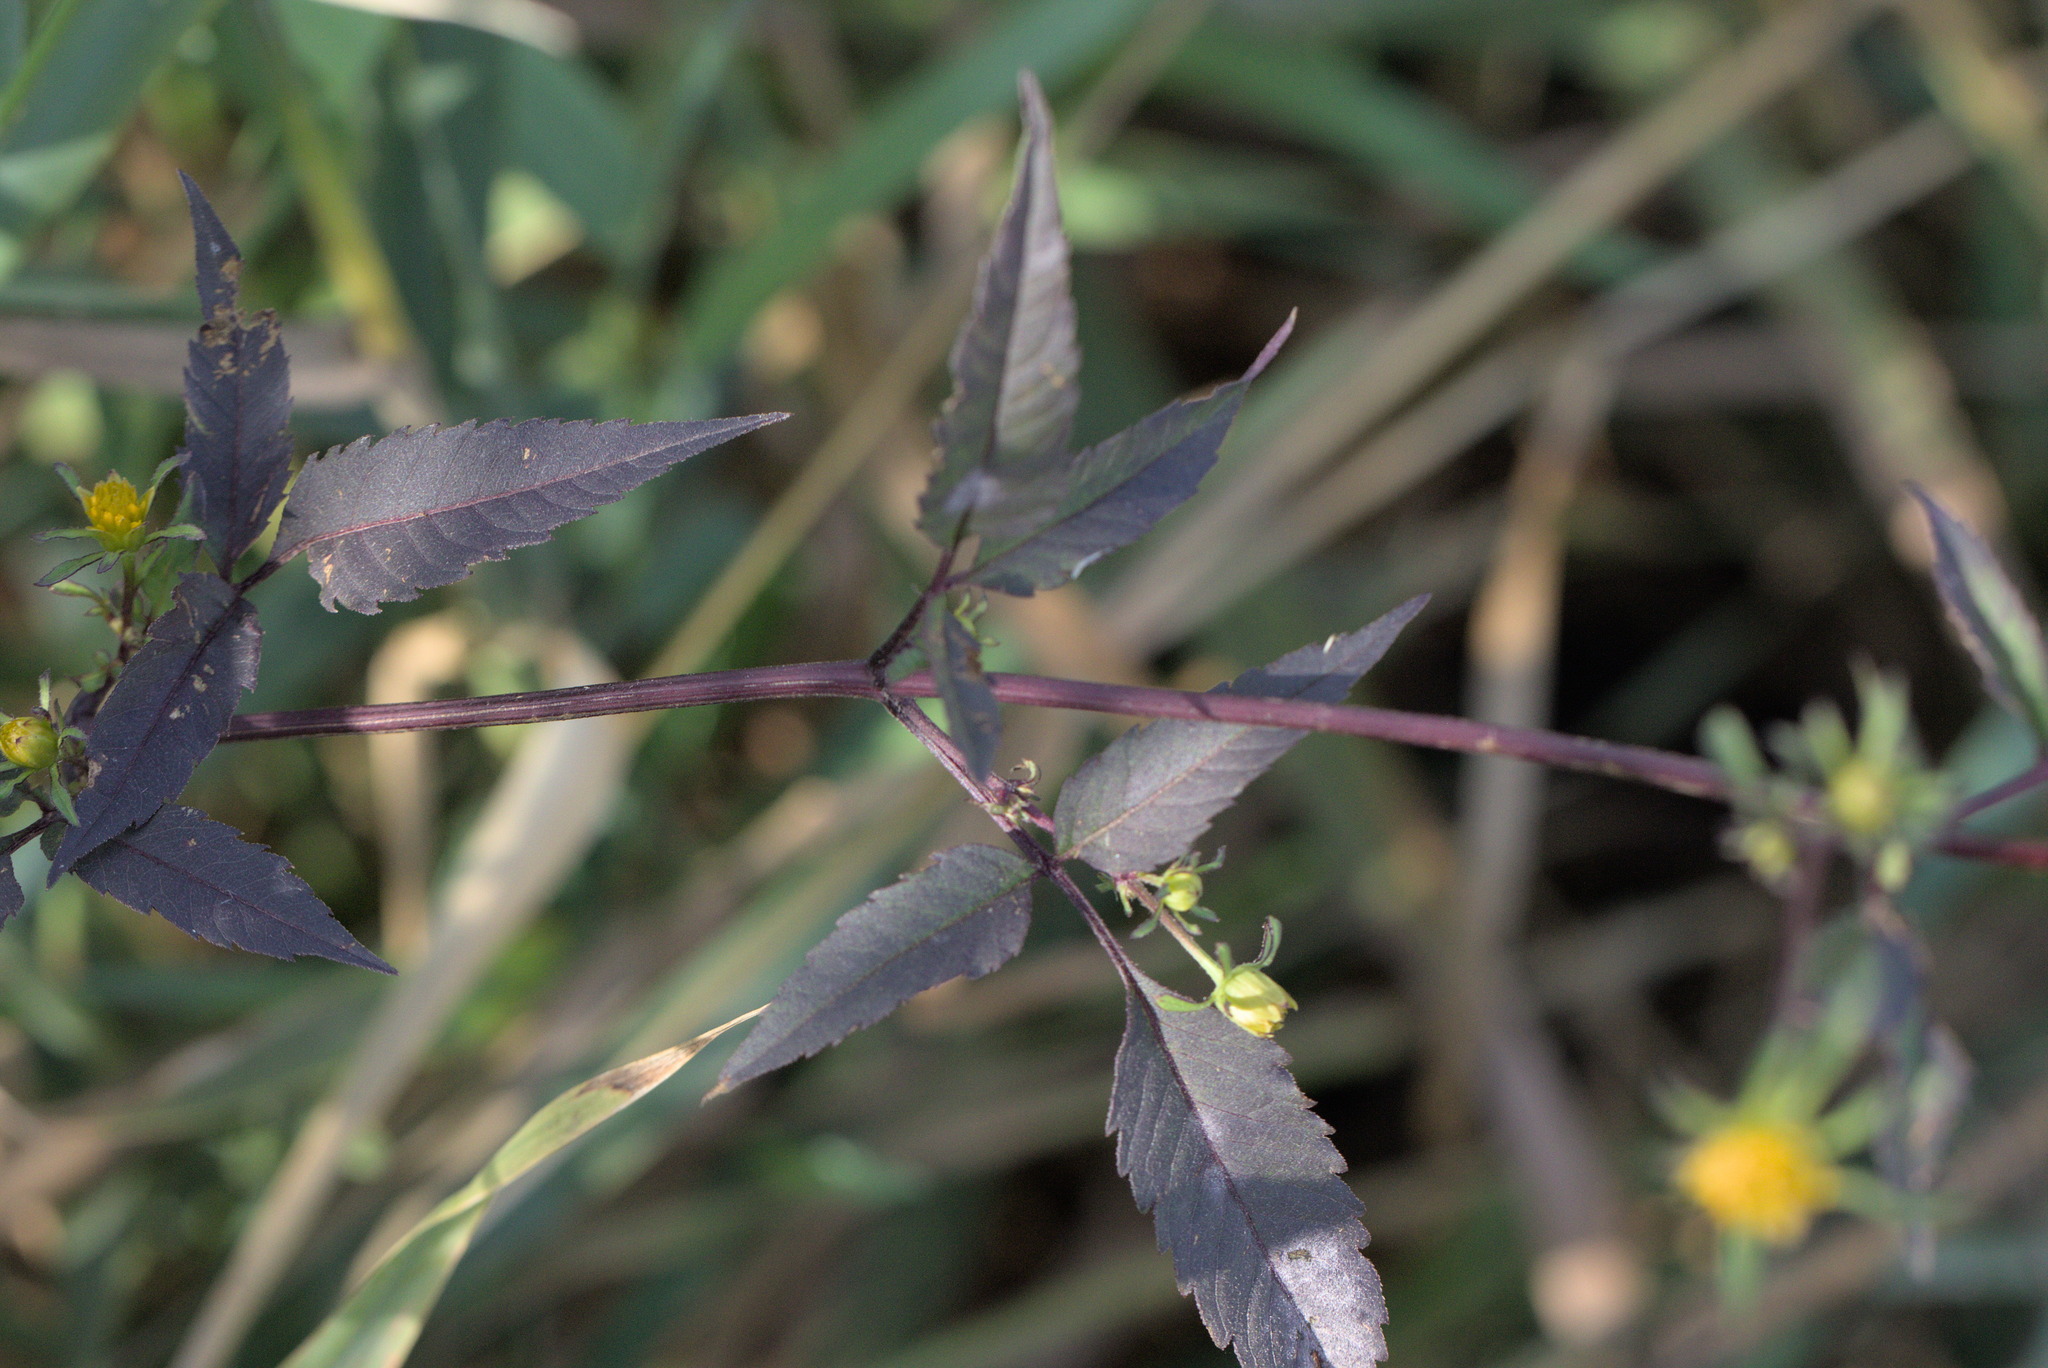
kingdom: Plantae
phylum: Tracheophyta
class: Magnoliopsida
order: Asterales
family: Asteraceae
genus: Bidens
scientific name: Bidens frondosa
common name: Beggarticks
